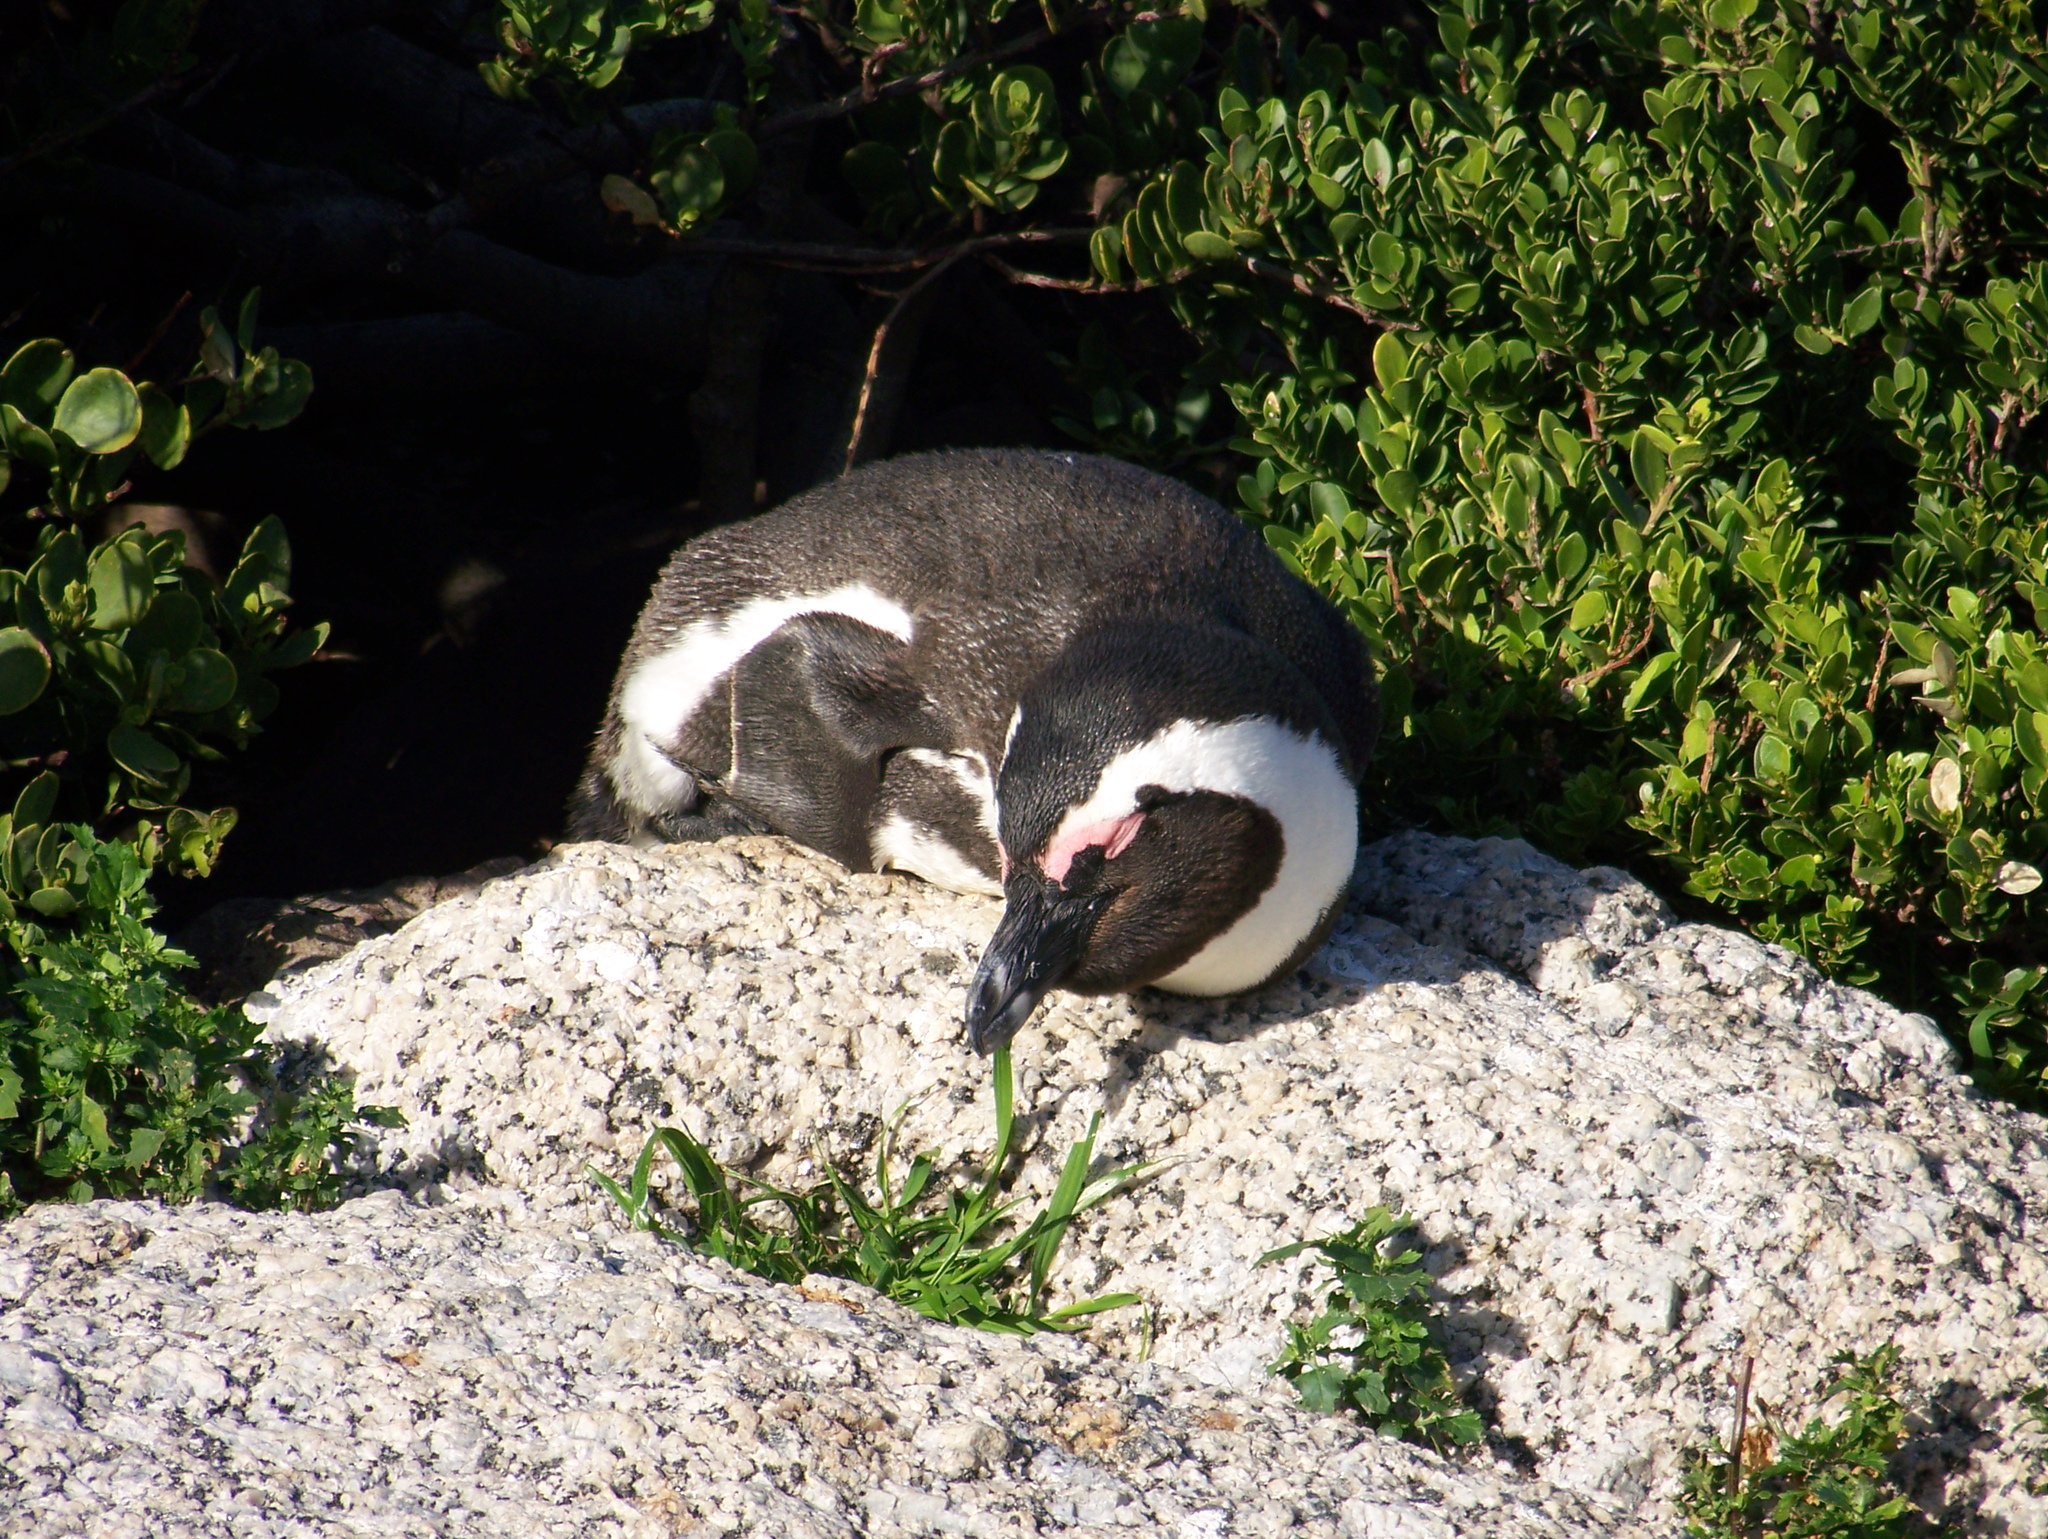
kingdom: Animalia
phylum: Chordata
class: Aves
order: Sphenisciformes
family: Spheniscidae
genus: Spheniscus
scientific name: Spheniscus demersus
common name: African penguin
